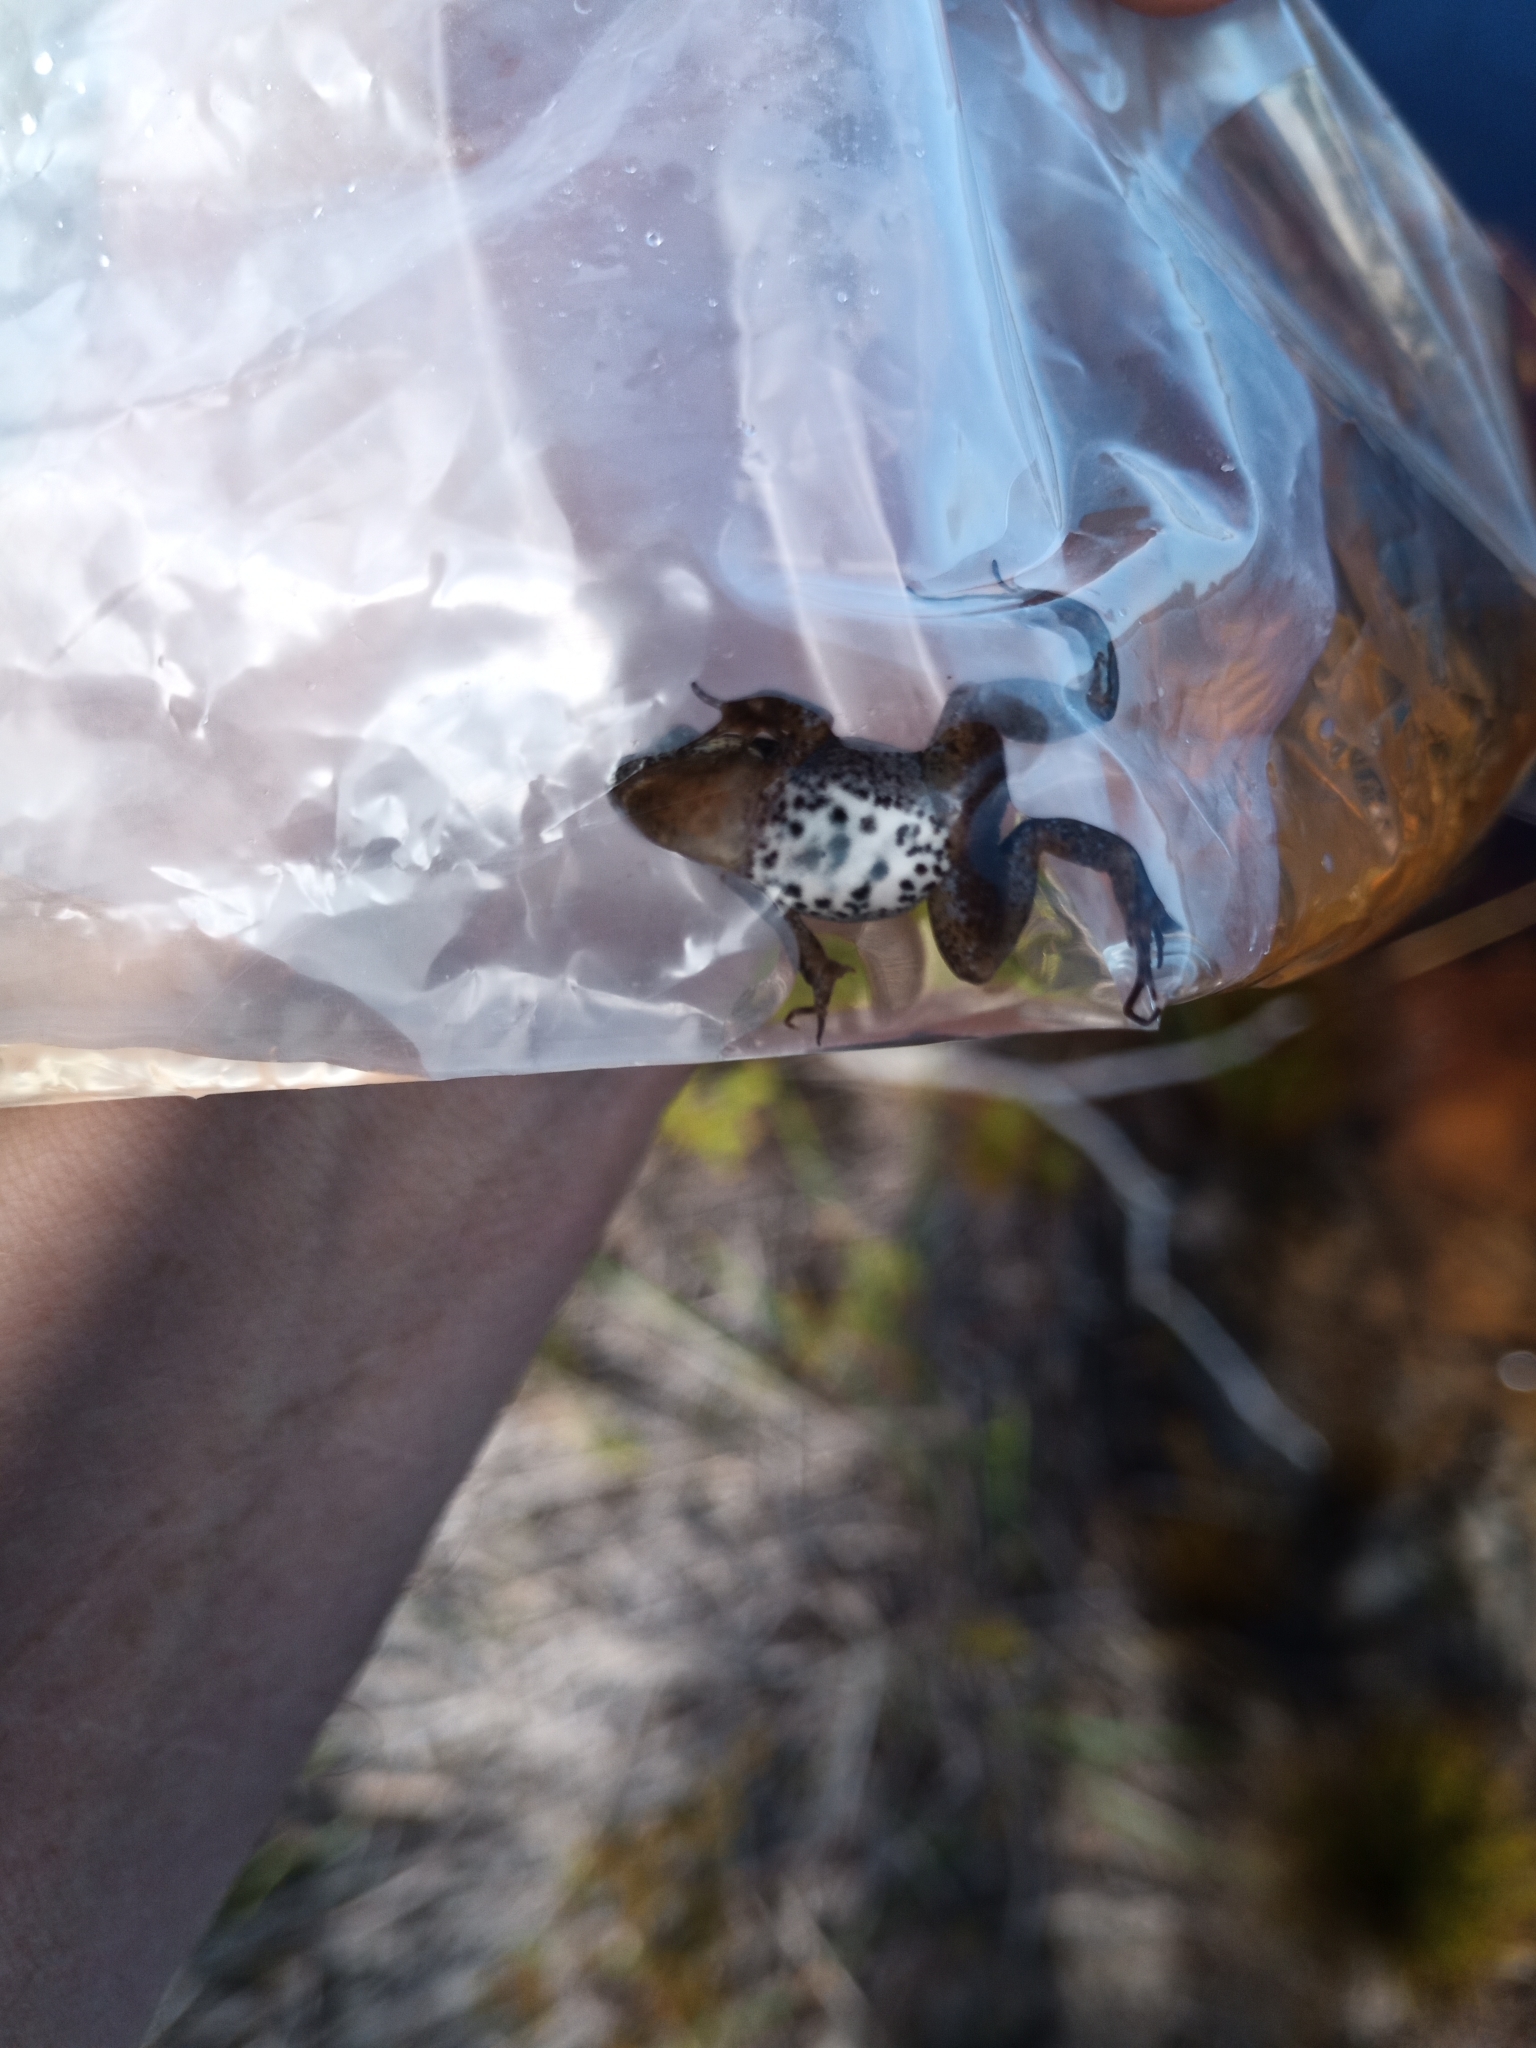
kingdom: Animalia
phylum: Chordata
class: Amphibia
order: Anura
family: Pyxicephalidae
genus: Cacosternum
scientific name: Cacosternum australis
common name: Southern dainty frog
